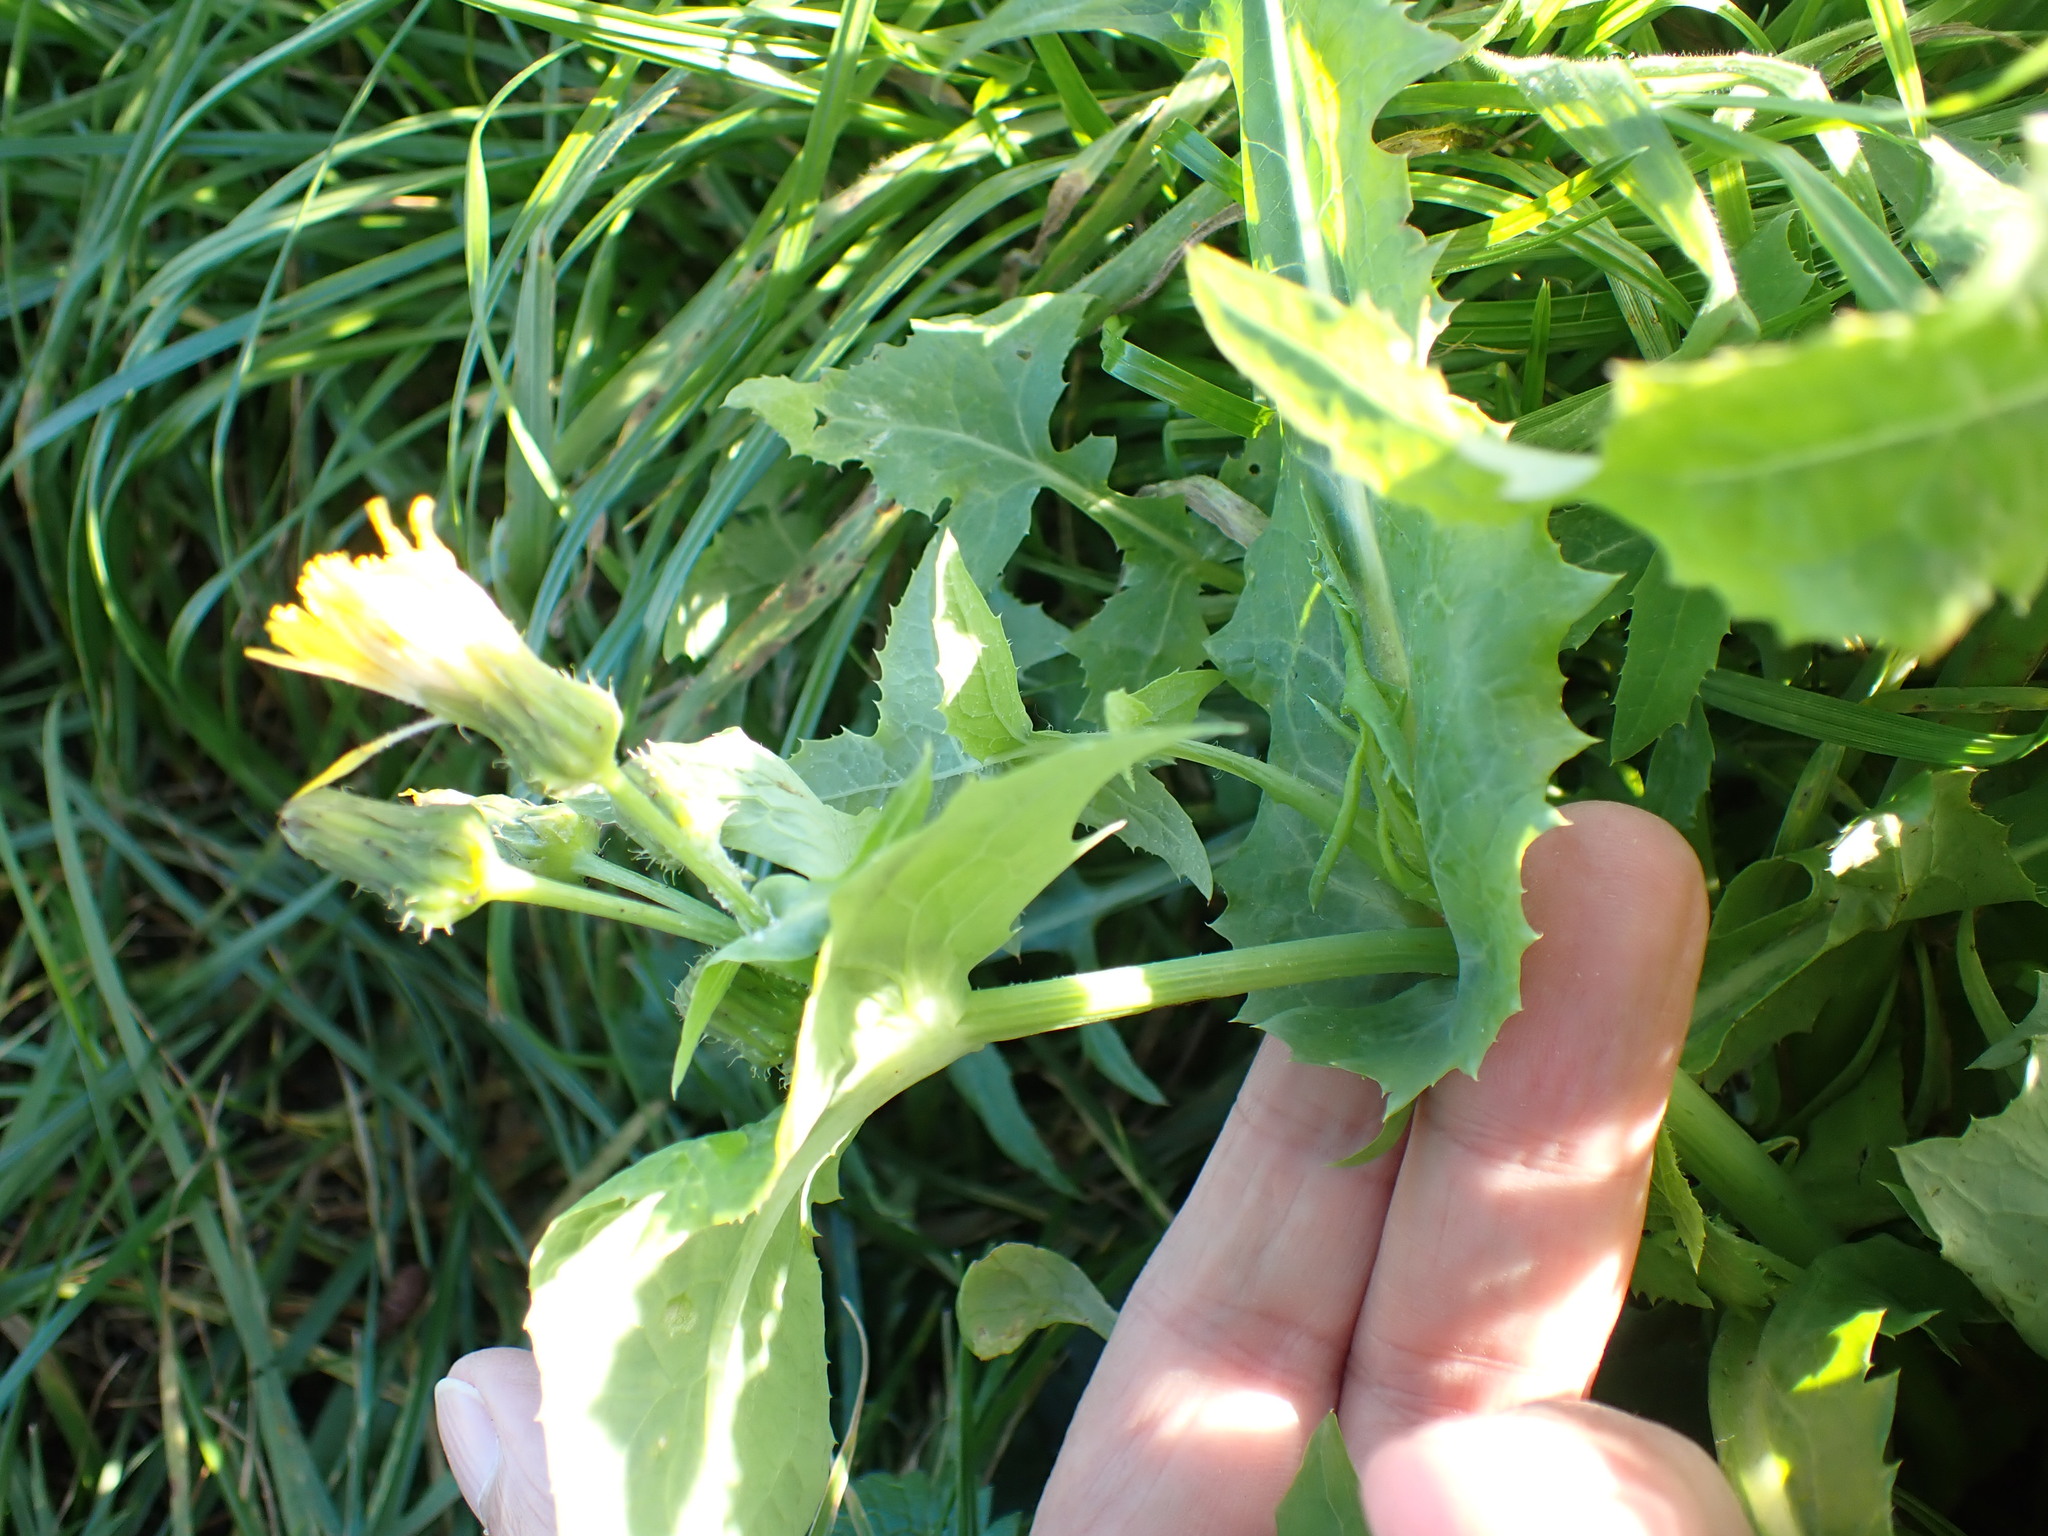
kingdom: Plantae
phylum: Tracheophyta
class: Magnoliopsida
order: Asterales
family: Asteraceae
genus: Sonchus
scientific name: Sonchus oleraceus
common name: Common sowthistle
